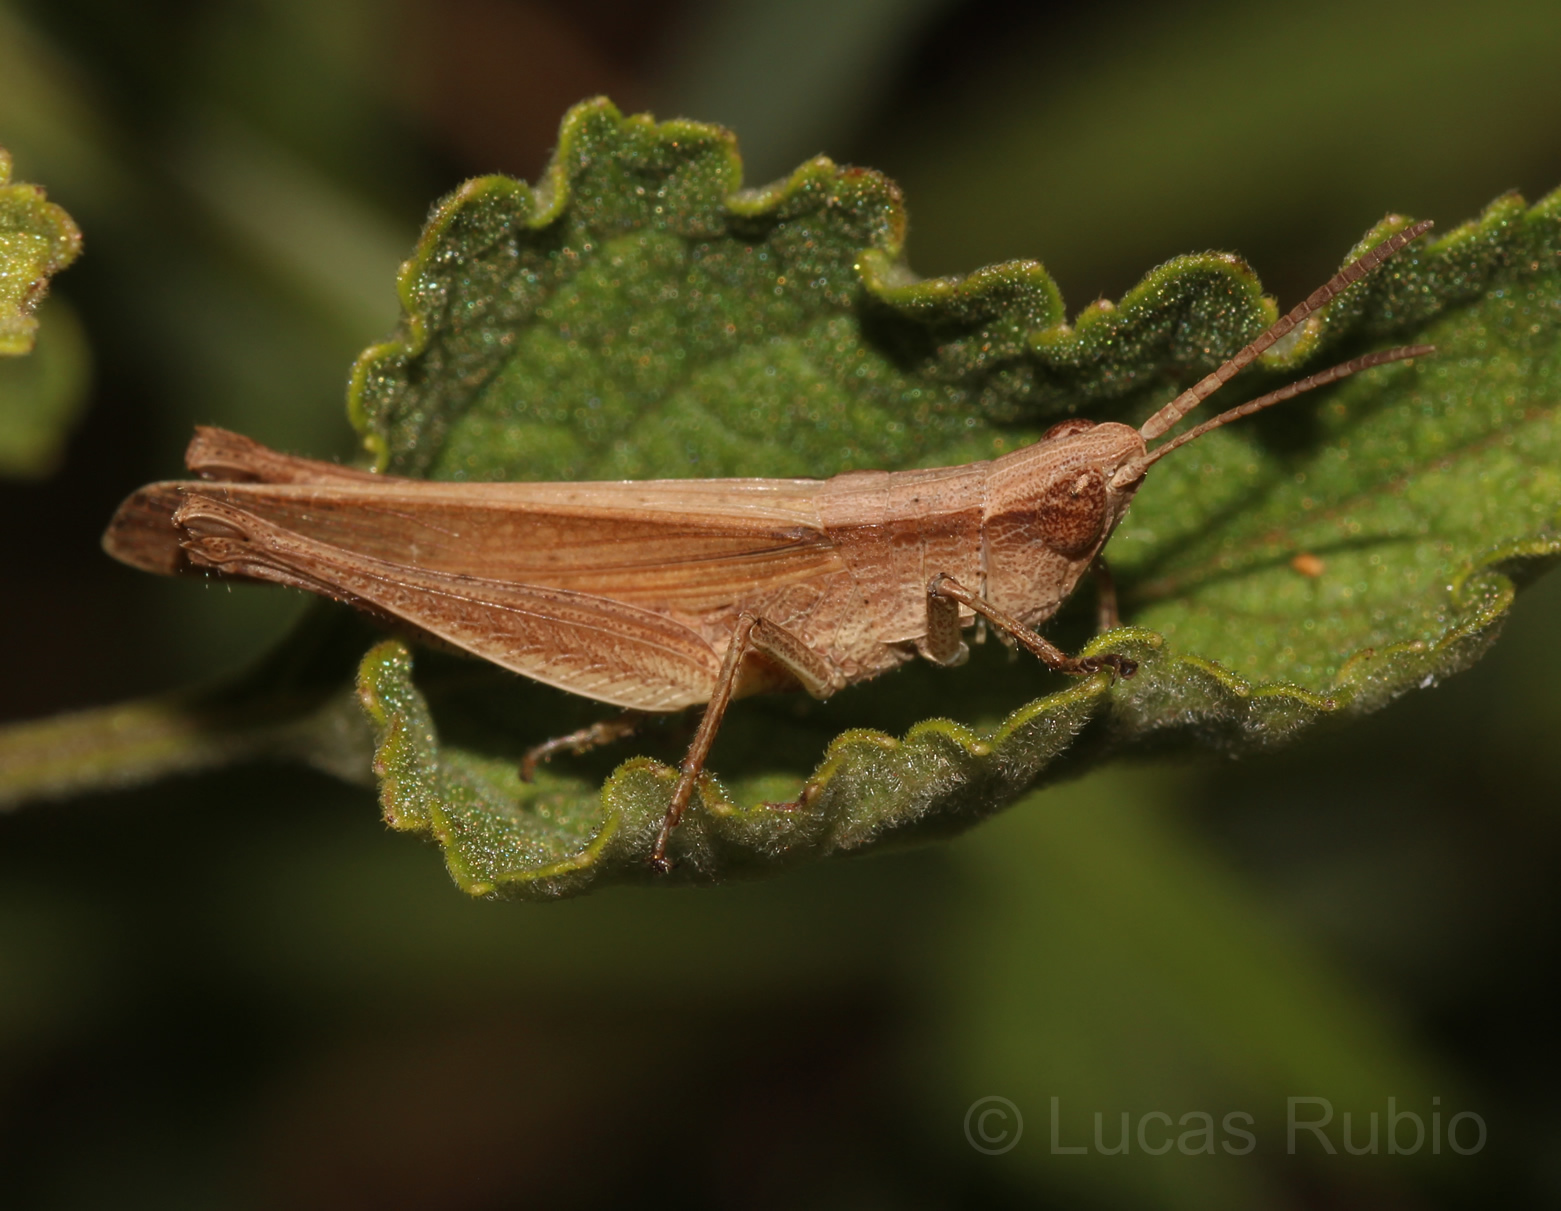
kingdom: Animalia
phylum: Arthropoda
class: Insecta
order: Orthoptera
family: Acrididae
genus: Eutryxalis
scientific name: Eutryxalis filata
